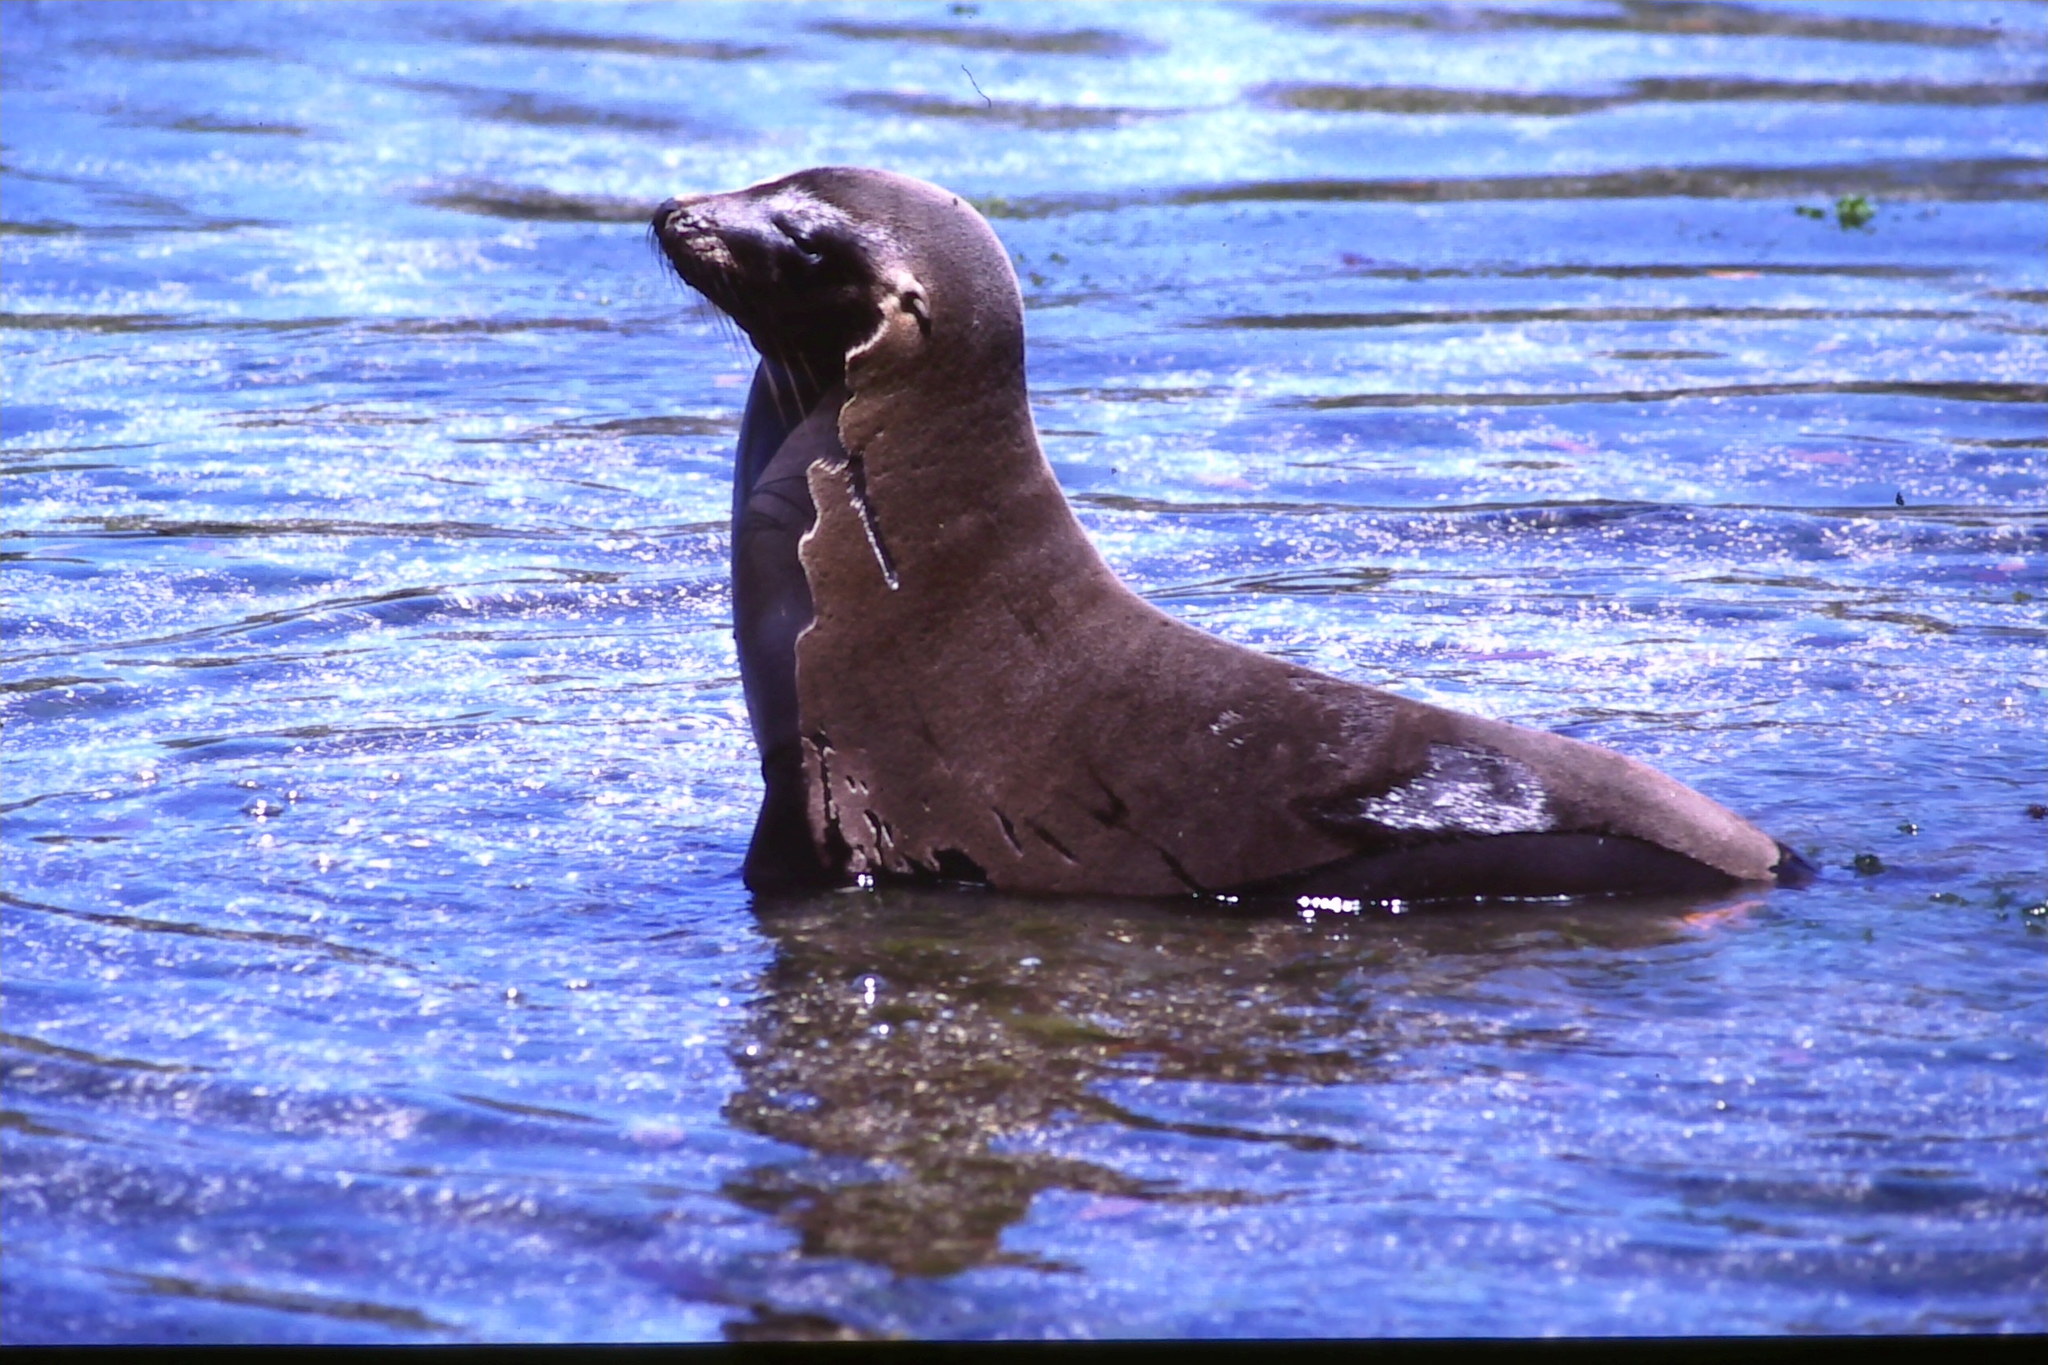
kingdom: Animalia
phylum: Chordata
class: Mammalia
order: Carnivora
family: Otariidae
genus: Zalophus
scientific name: Zalophus wollebaeki
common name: Galapagos sea lion
